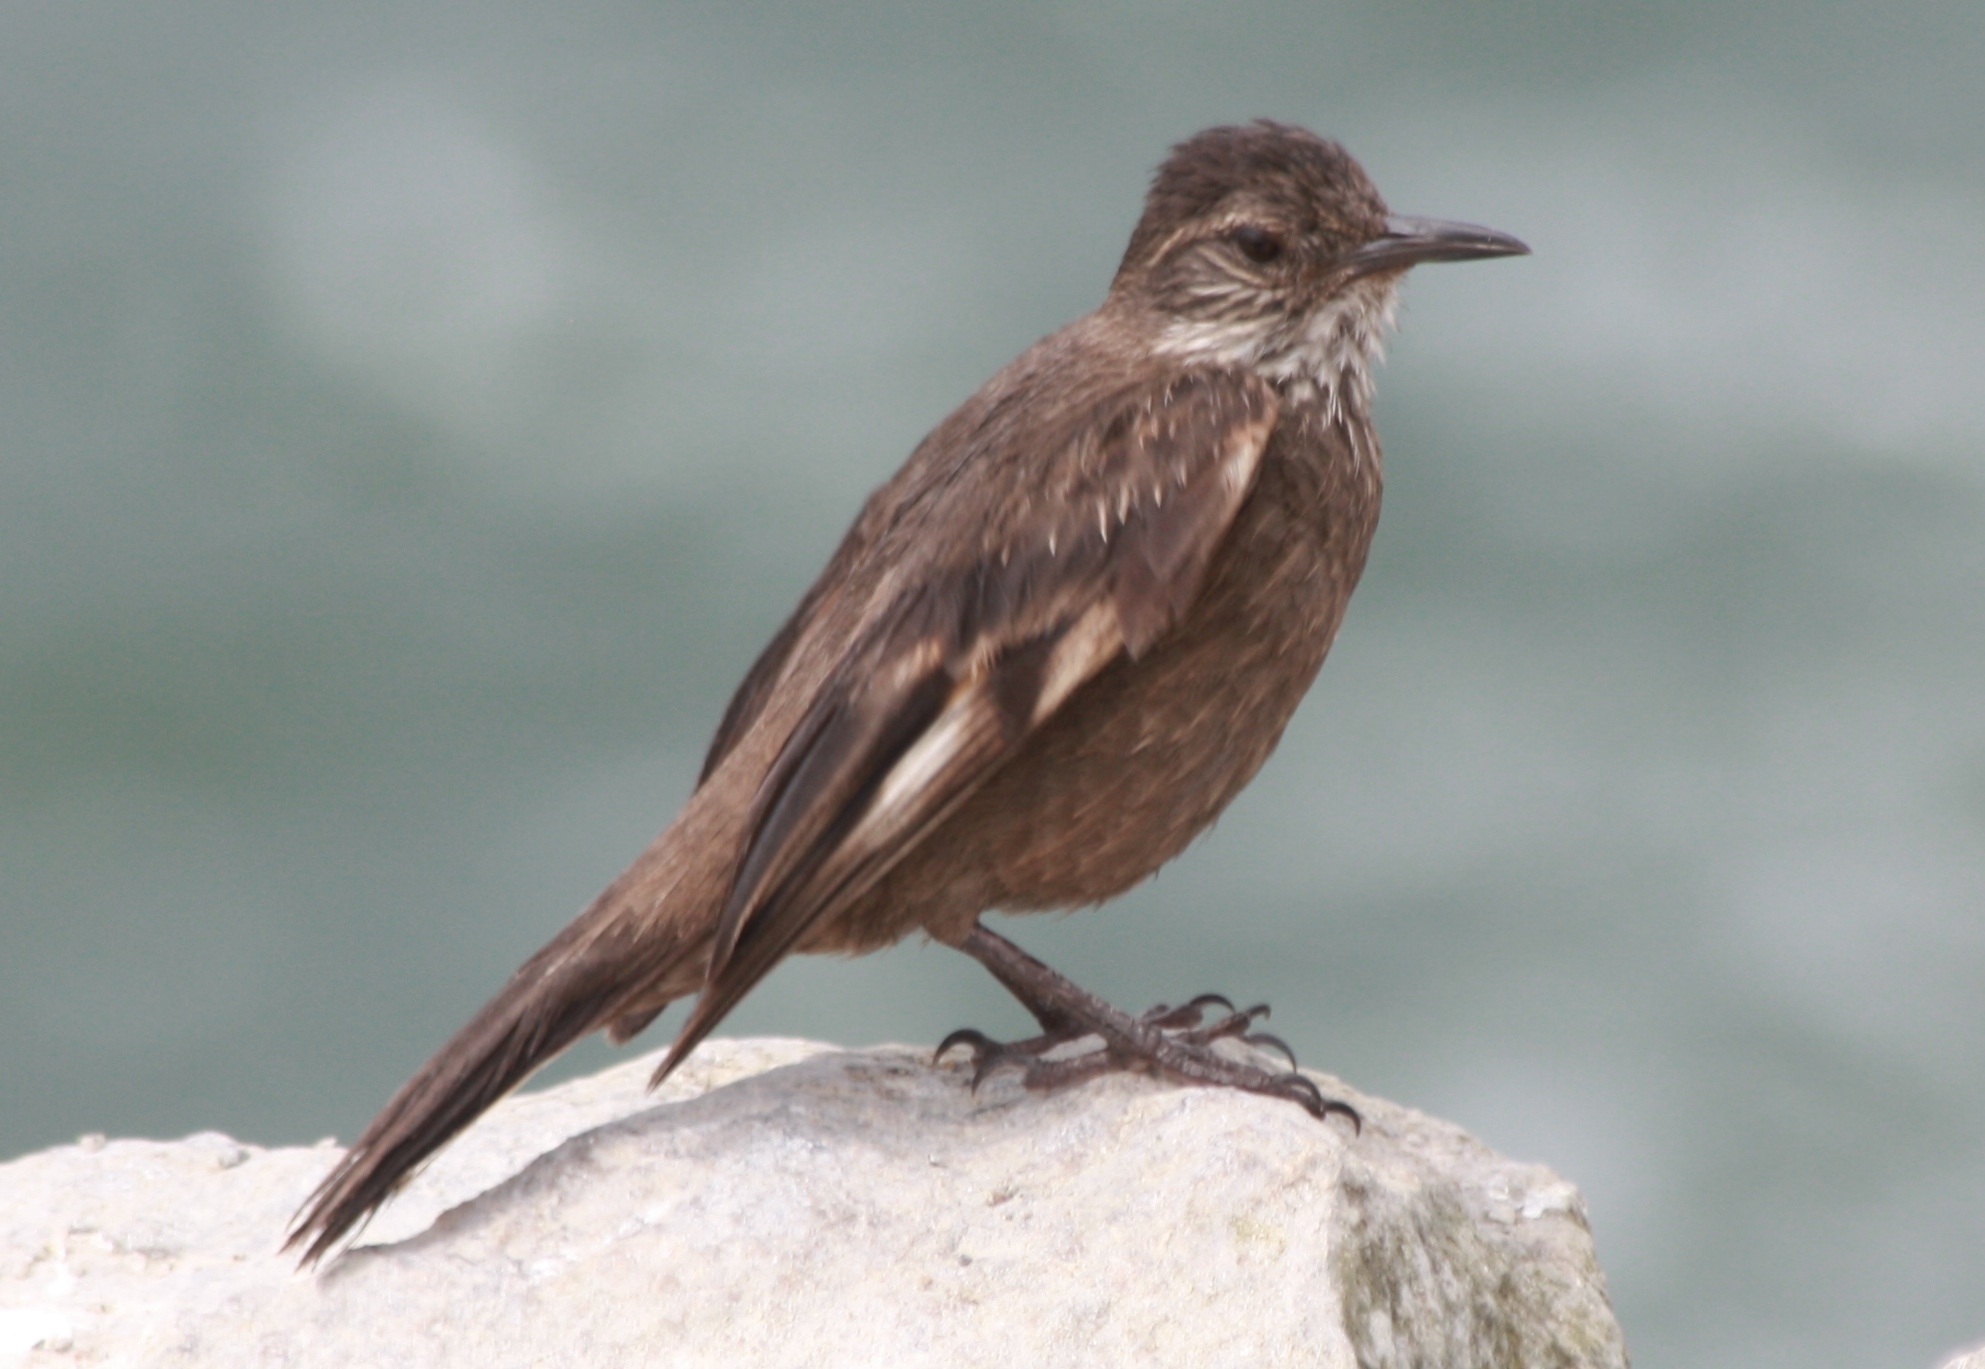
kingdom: Animalia
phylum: Chordata
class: Aves
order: Passeriformes
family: Furnariidae
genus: Cinclodes
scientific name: Cinclodes taczanowskii
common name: Peruvian seaside cinclodes
